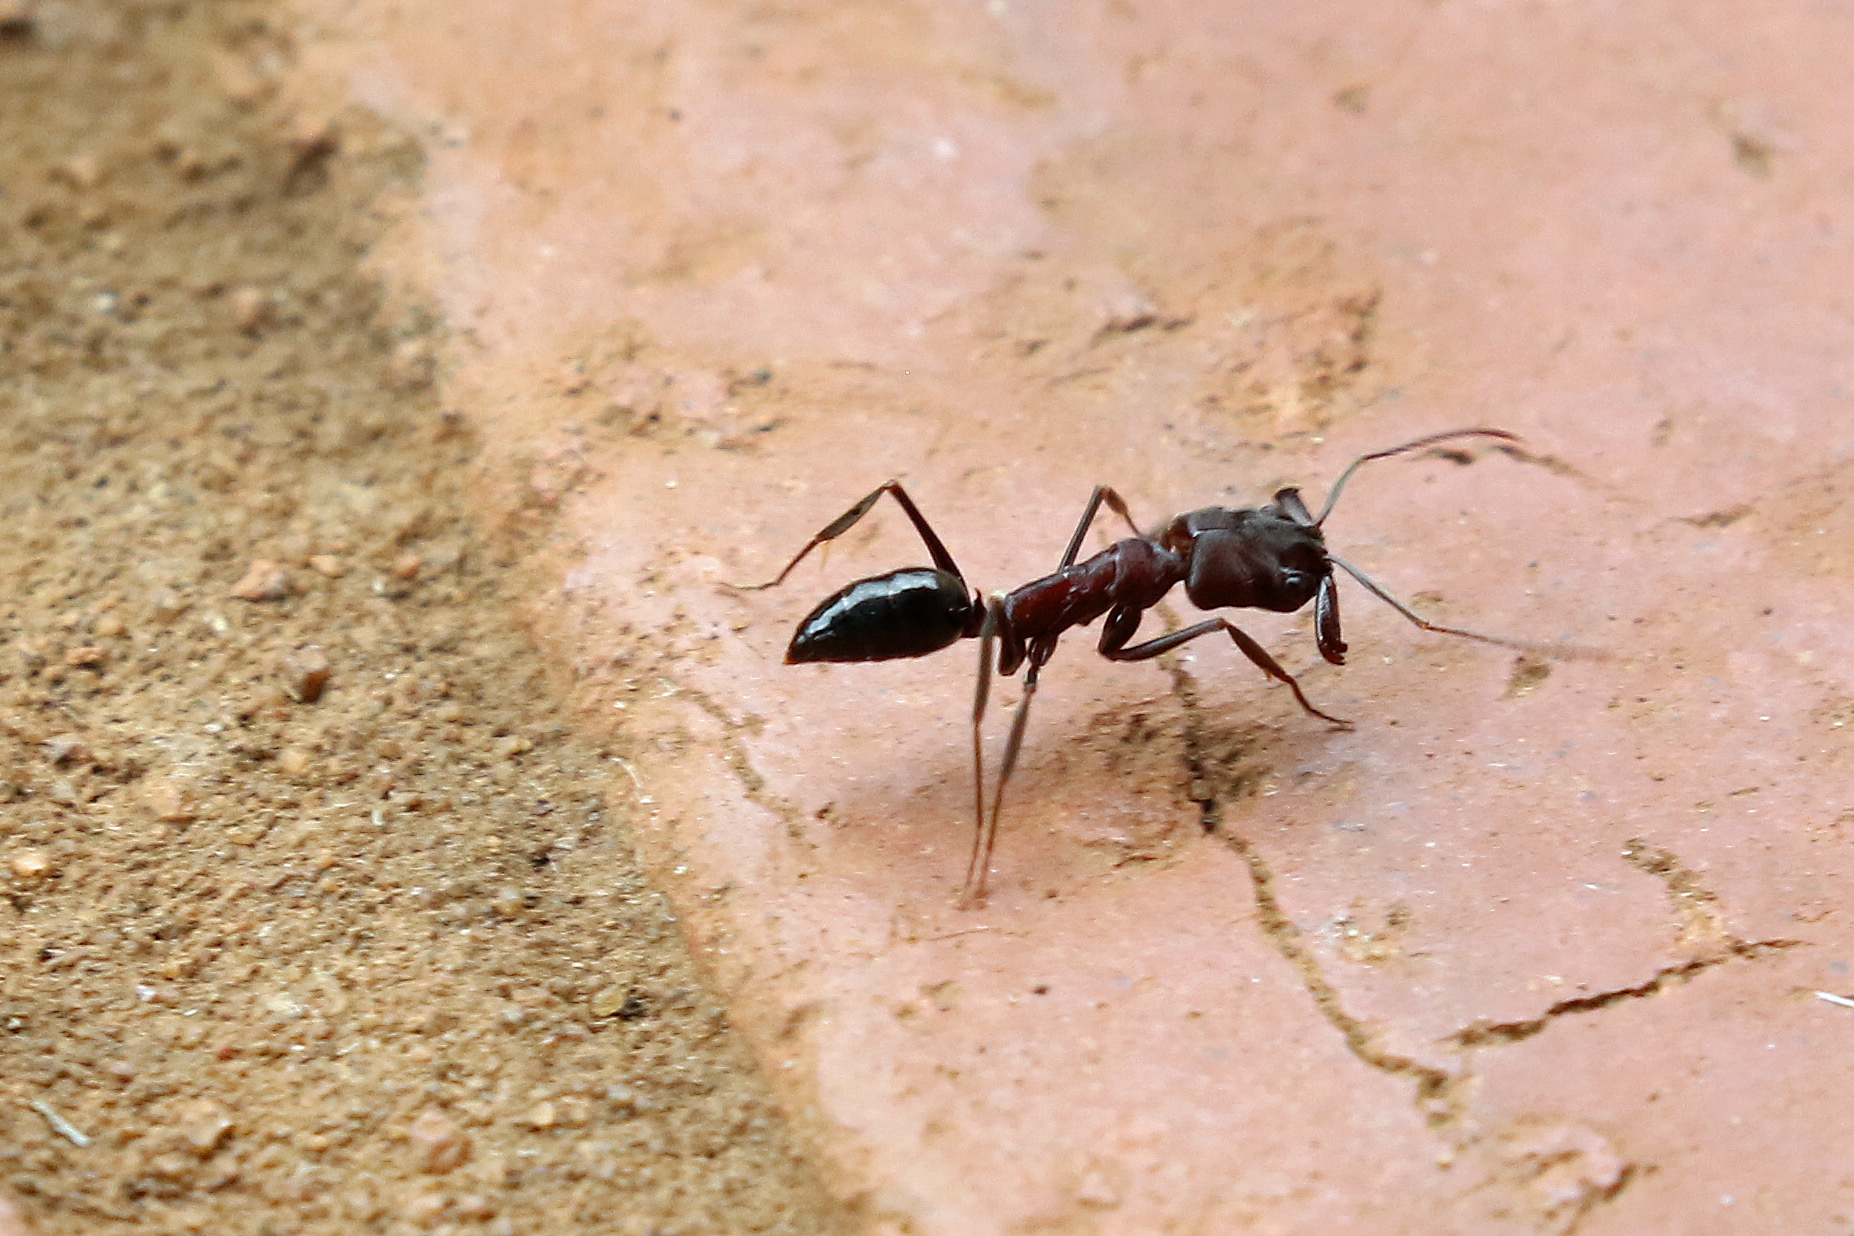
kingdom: Animalia
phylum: Arthropoda
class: Insecta
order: Hymenoptera
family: Formicidae
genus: Odontomachus
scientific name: Odontomachus troglodytes
